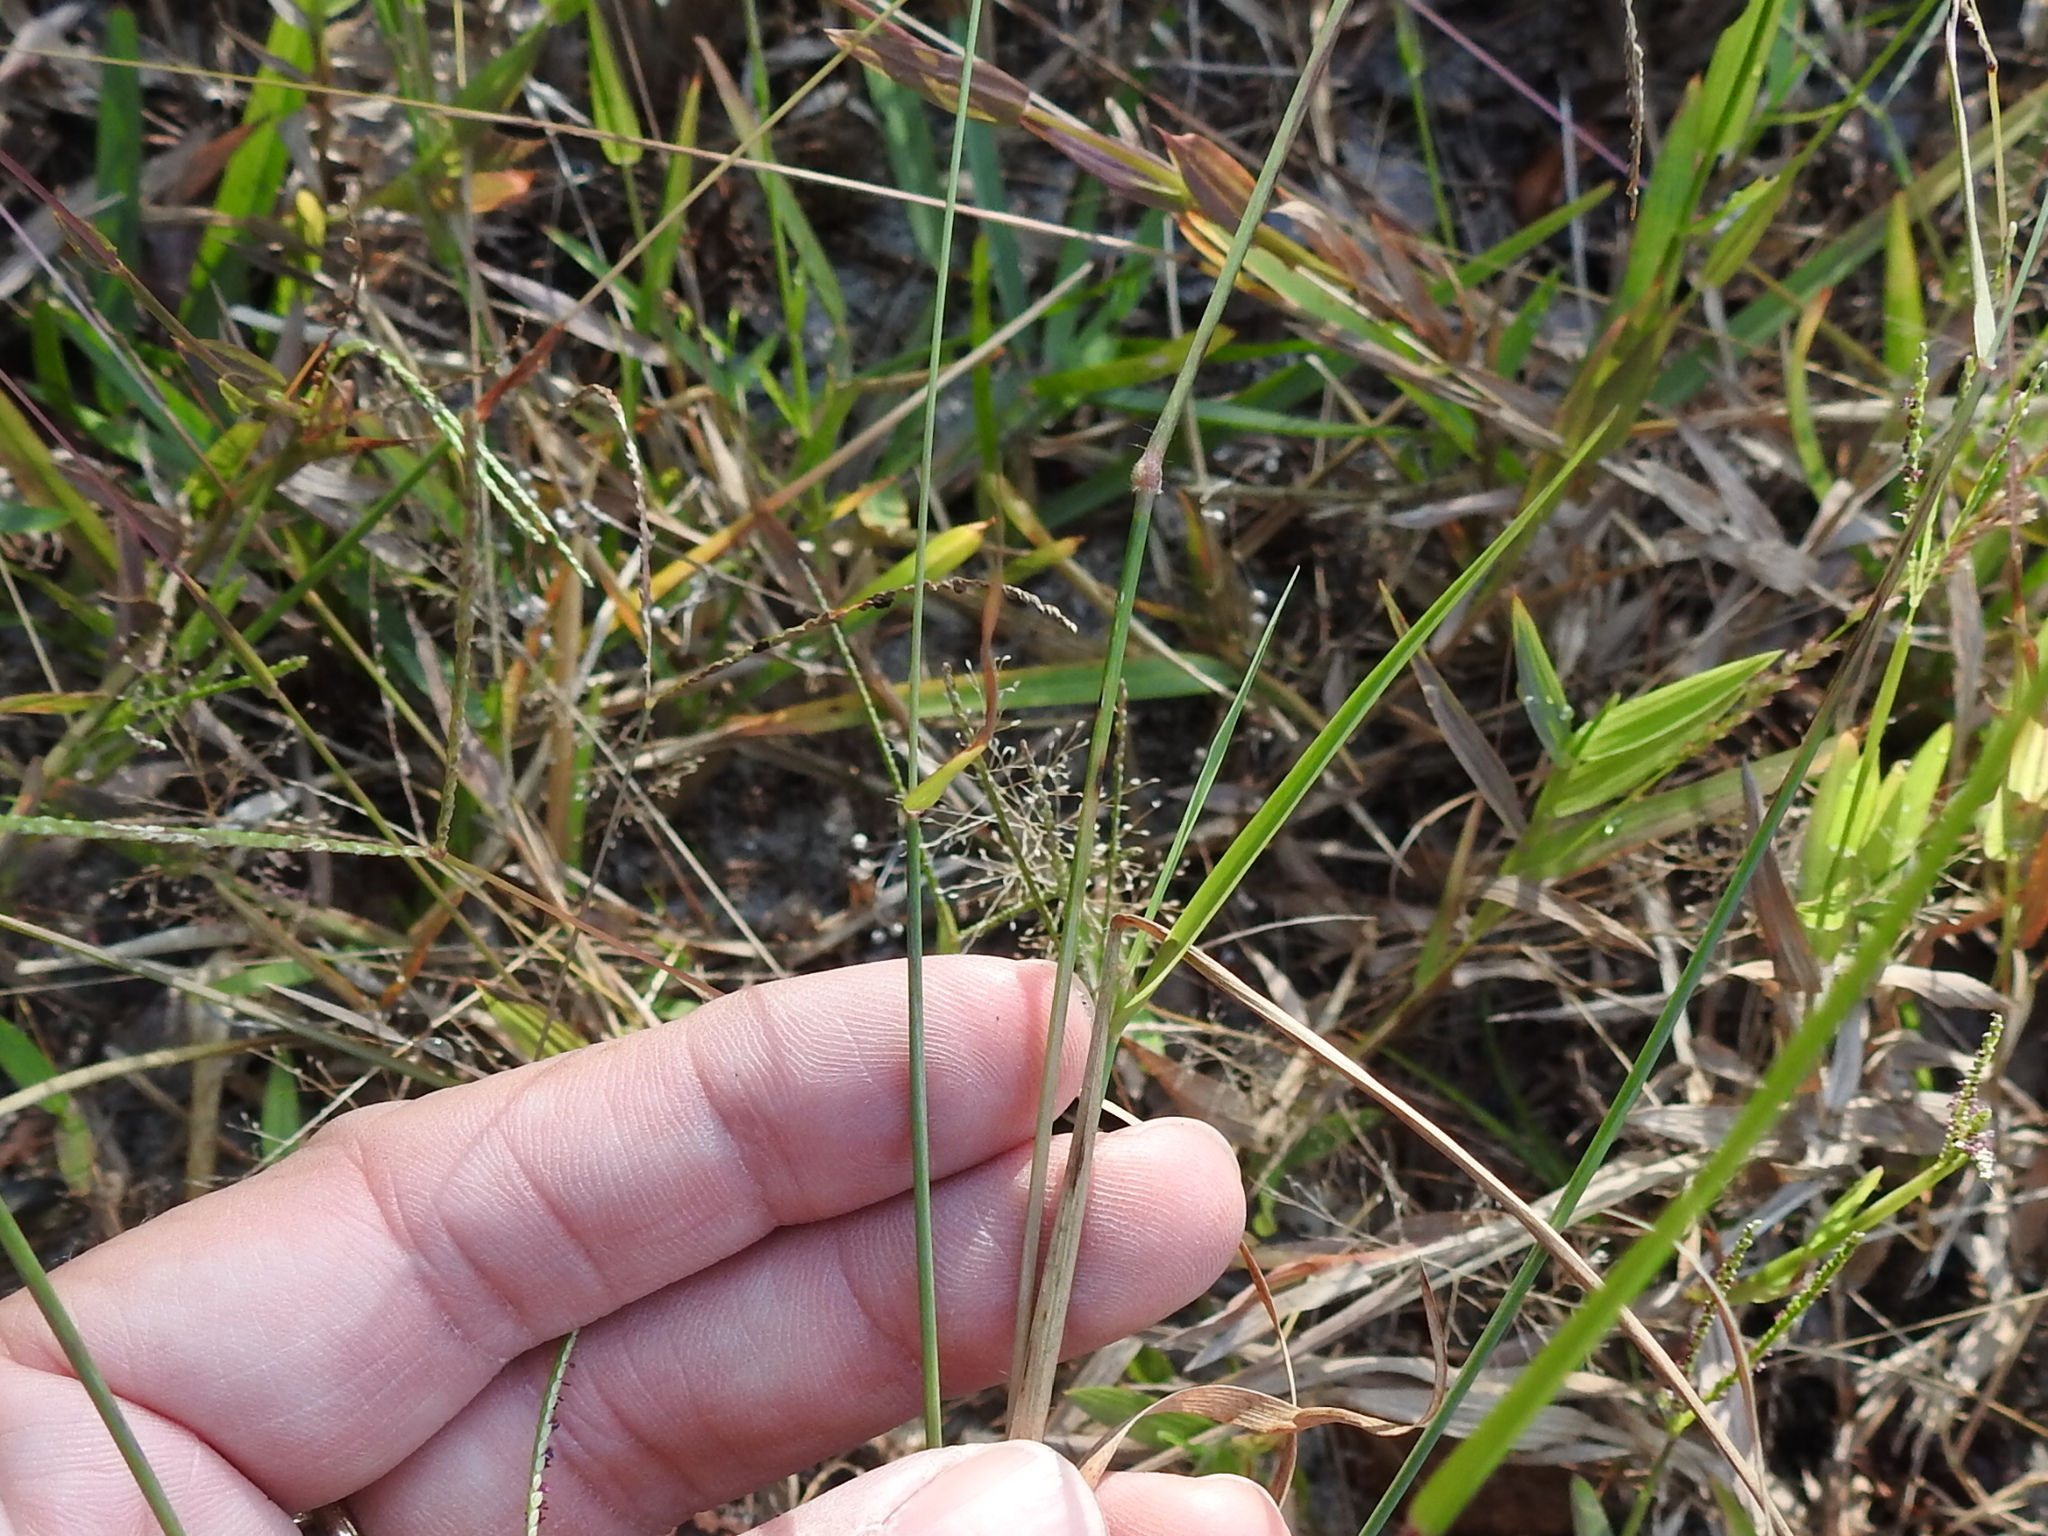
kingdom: Plantae
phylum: Tracheophyta
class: Liliopsida
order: Poales
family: Poaceae
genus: Melinis
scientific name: Melinis repens
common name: Rose natal grass
